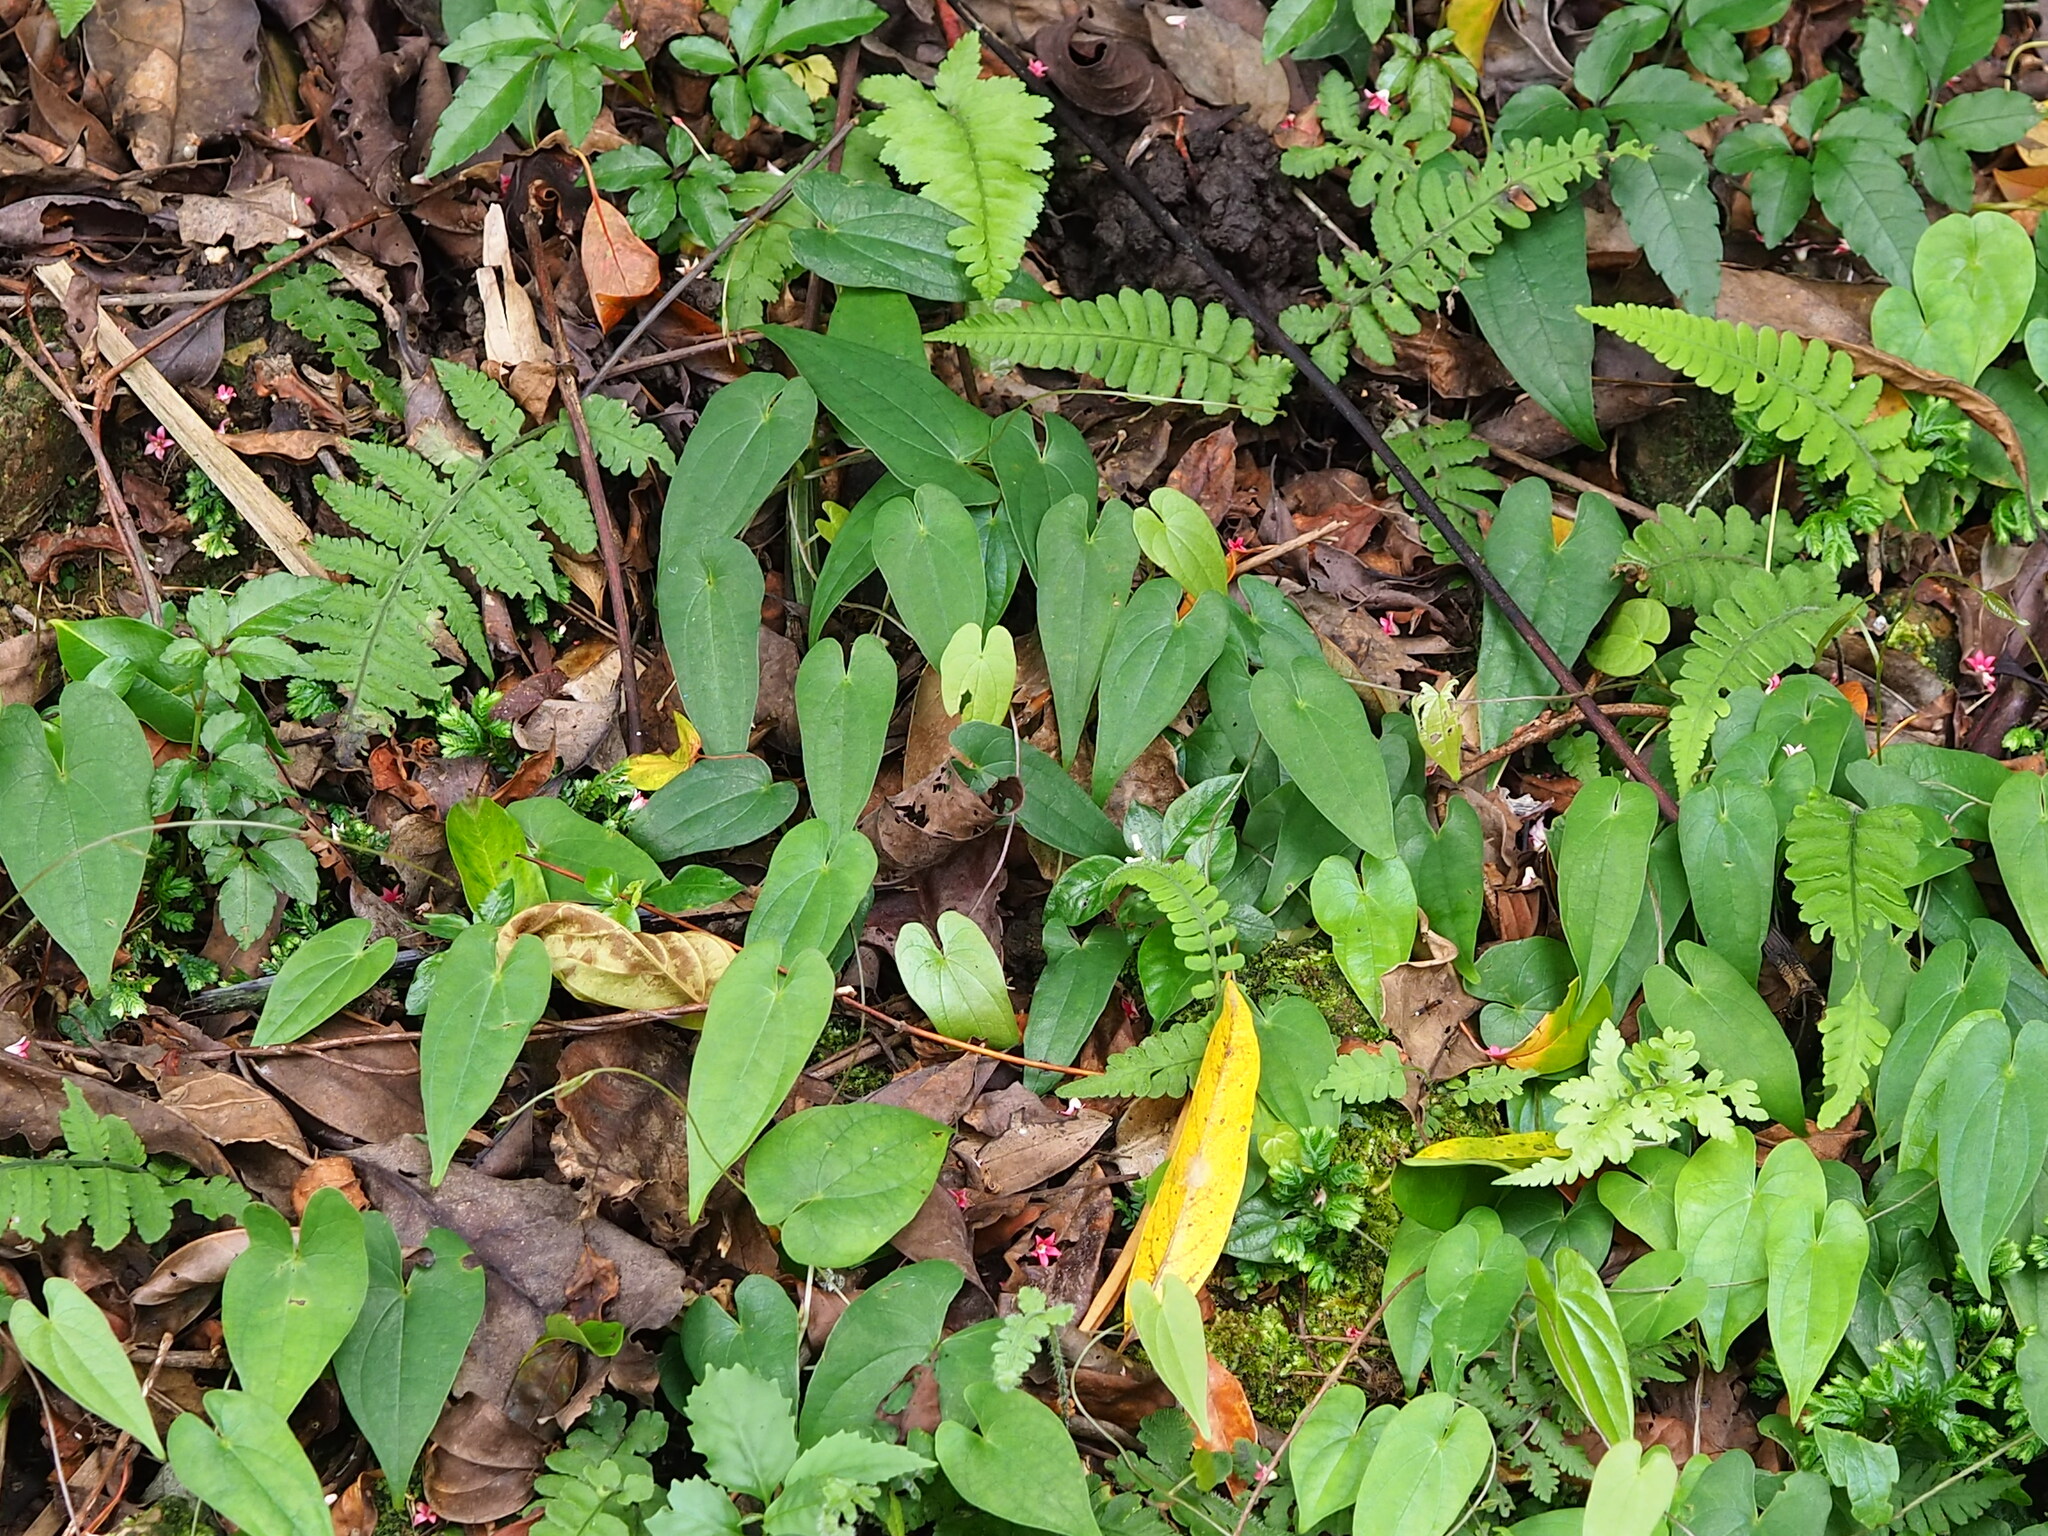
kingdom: Plantae
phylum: Tracheophyta
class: Liliopsida
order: Dioscoreales
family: Dioscoreaceae
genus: Dioscorea
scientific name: Dioscorea japonica
